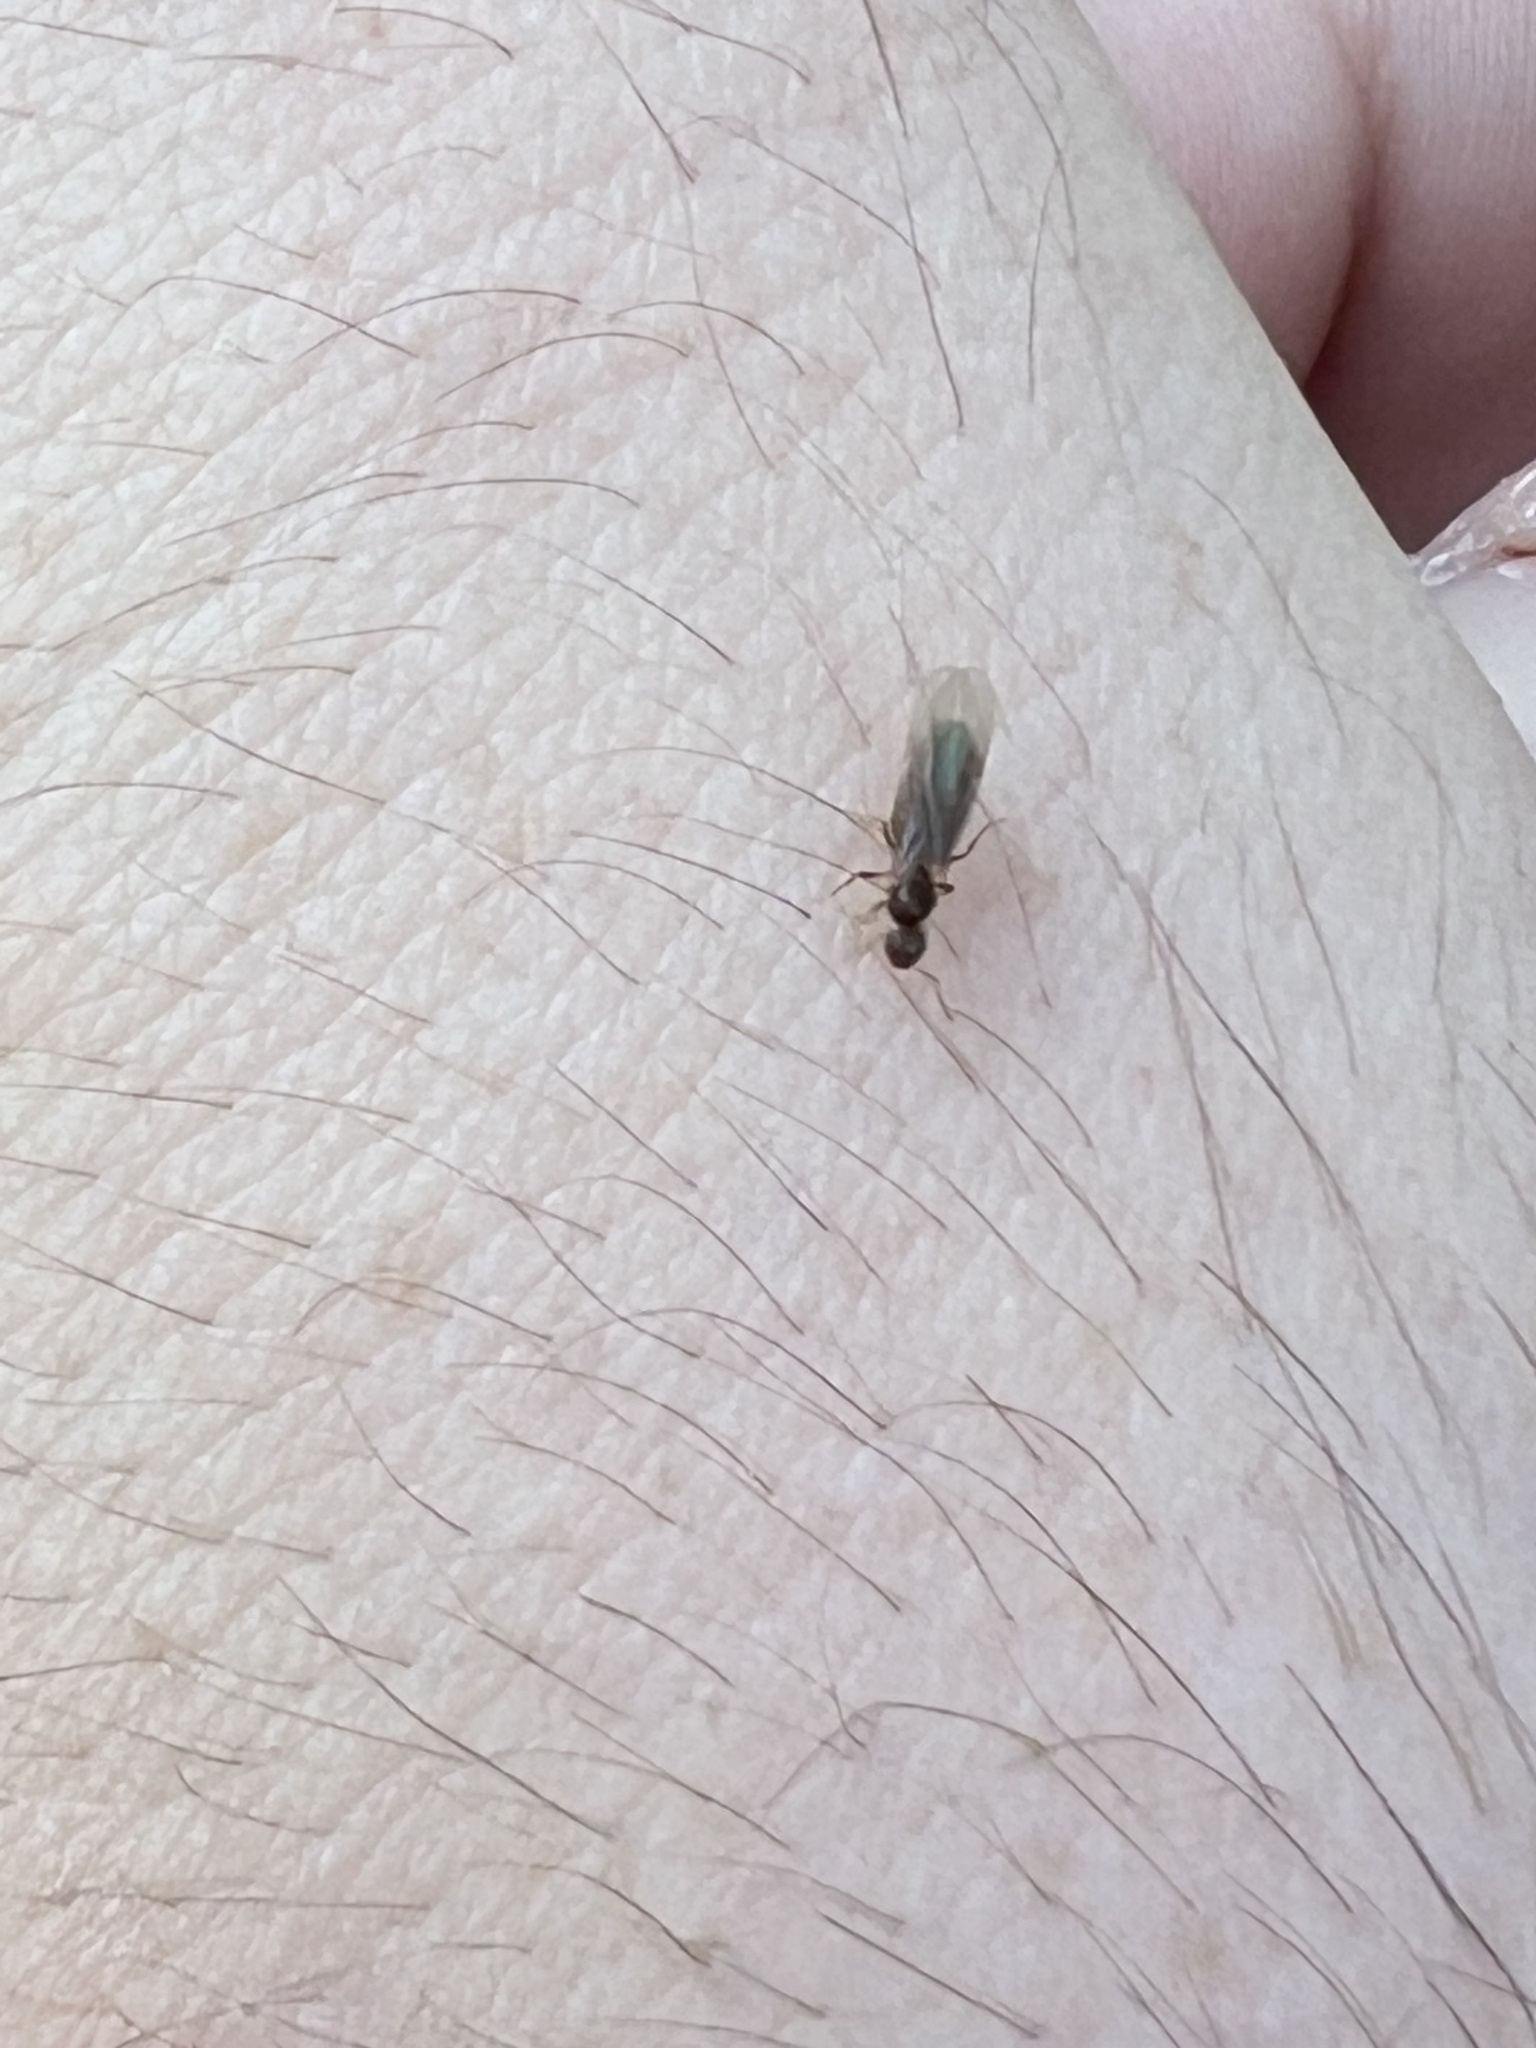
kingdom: Animalia
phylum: Arthropoda
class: Insecta
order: Hymenoptera
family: Formicidae
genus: Brachymyrmex
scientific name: Brachymyrmex obscurior
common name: Obscure rover ant
